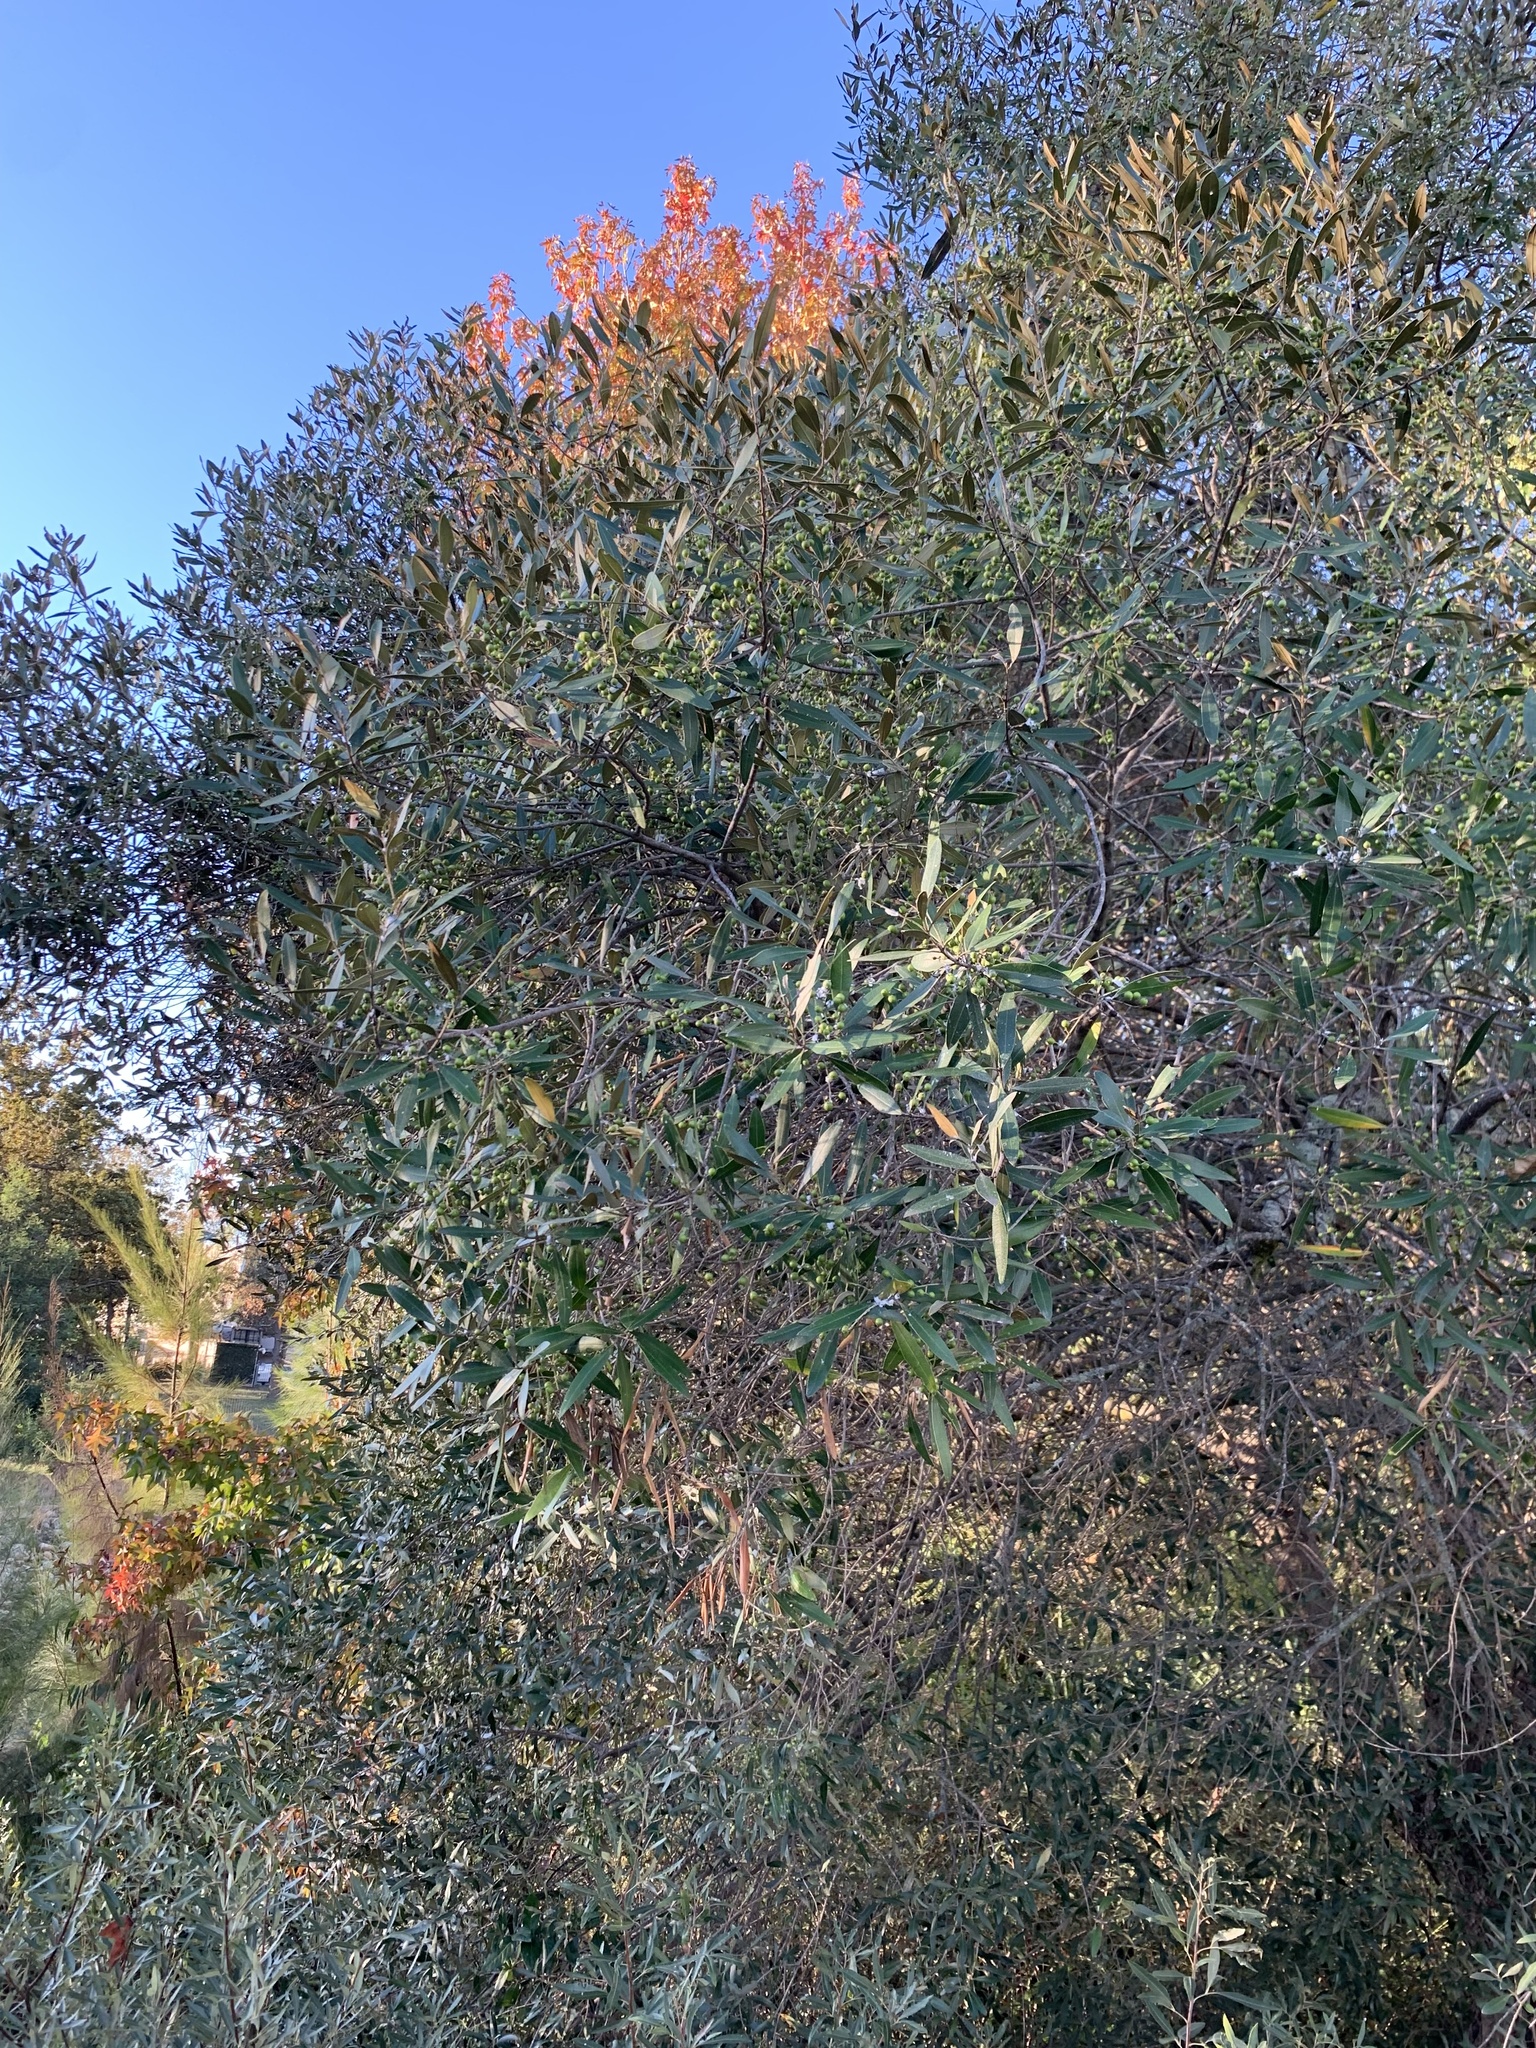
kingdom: Plantae
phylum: Tracheophyta
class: Magnoliopsida
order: Lamiales
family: Oleaceae
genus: Olea
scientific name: Olea europaea
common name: Olive
